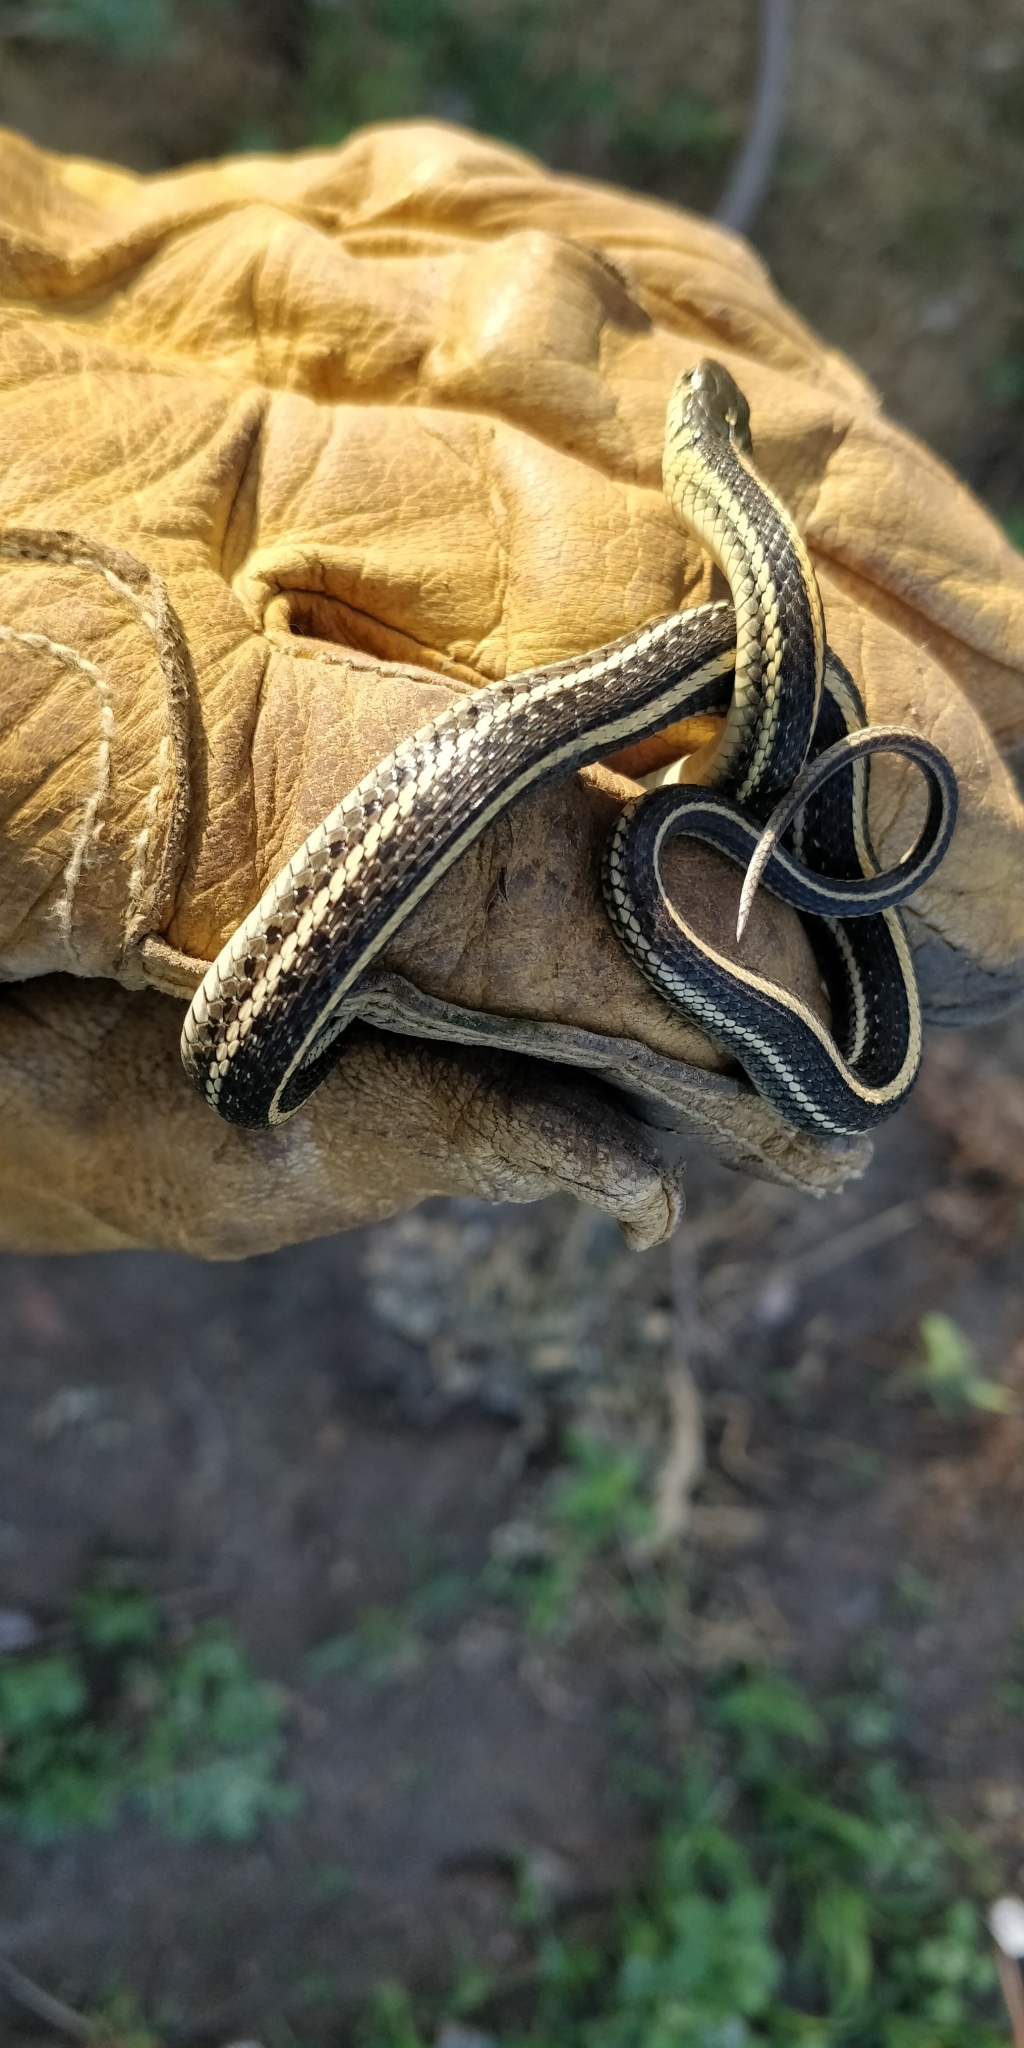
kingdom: Animalia
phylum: Chordata
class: Squamata
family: Colubridae
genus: Thamnophis
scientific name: Thamnophis radix
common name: Plains garter snake
